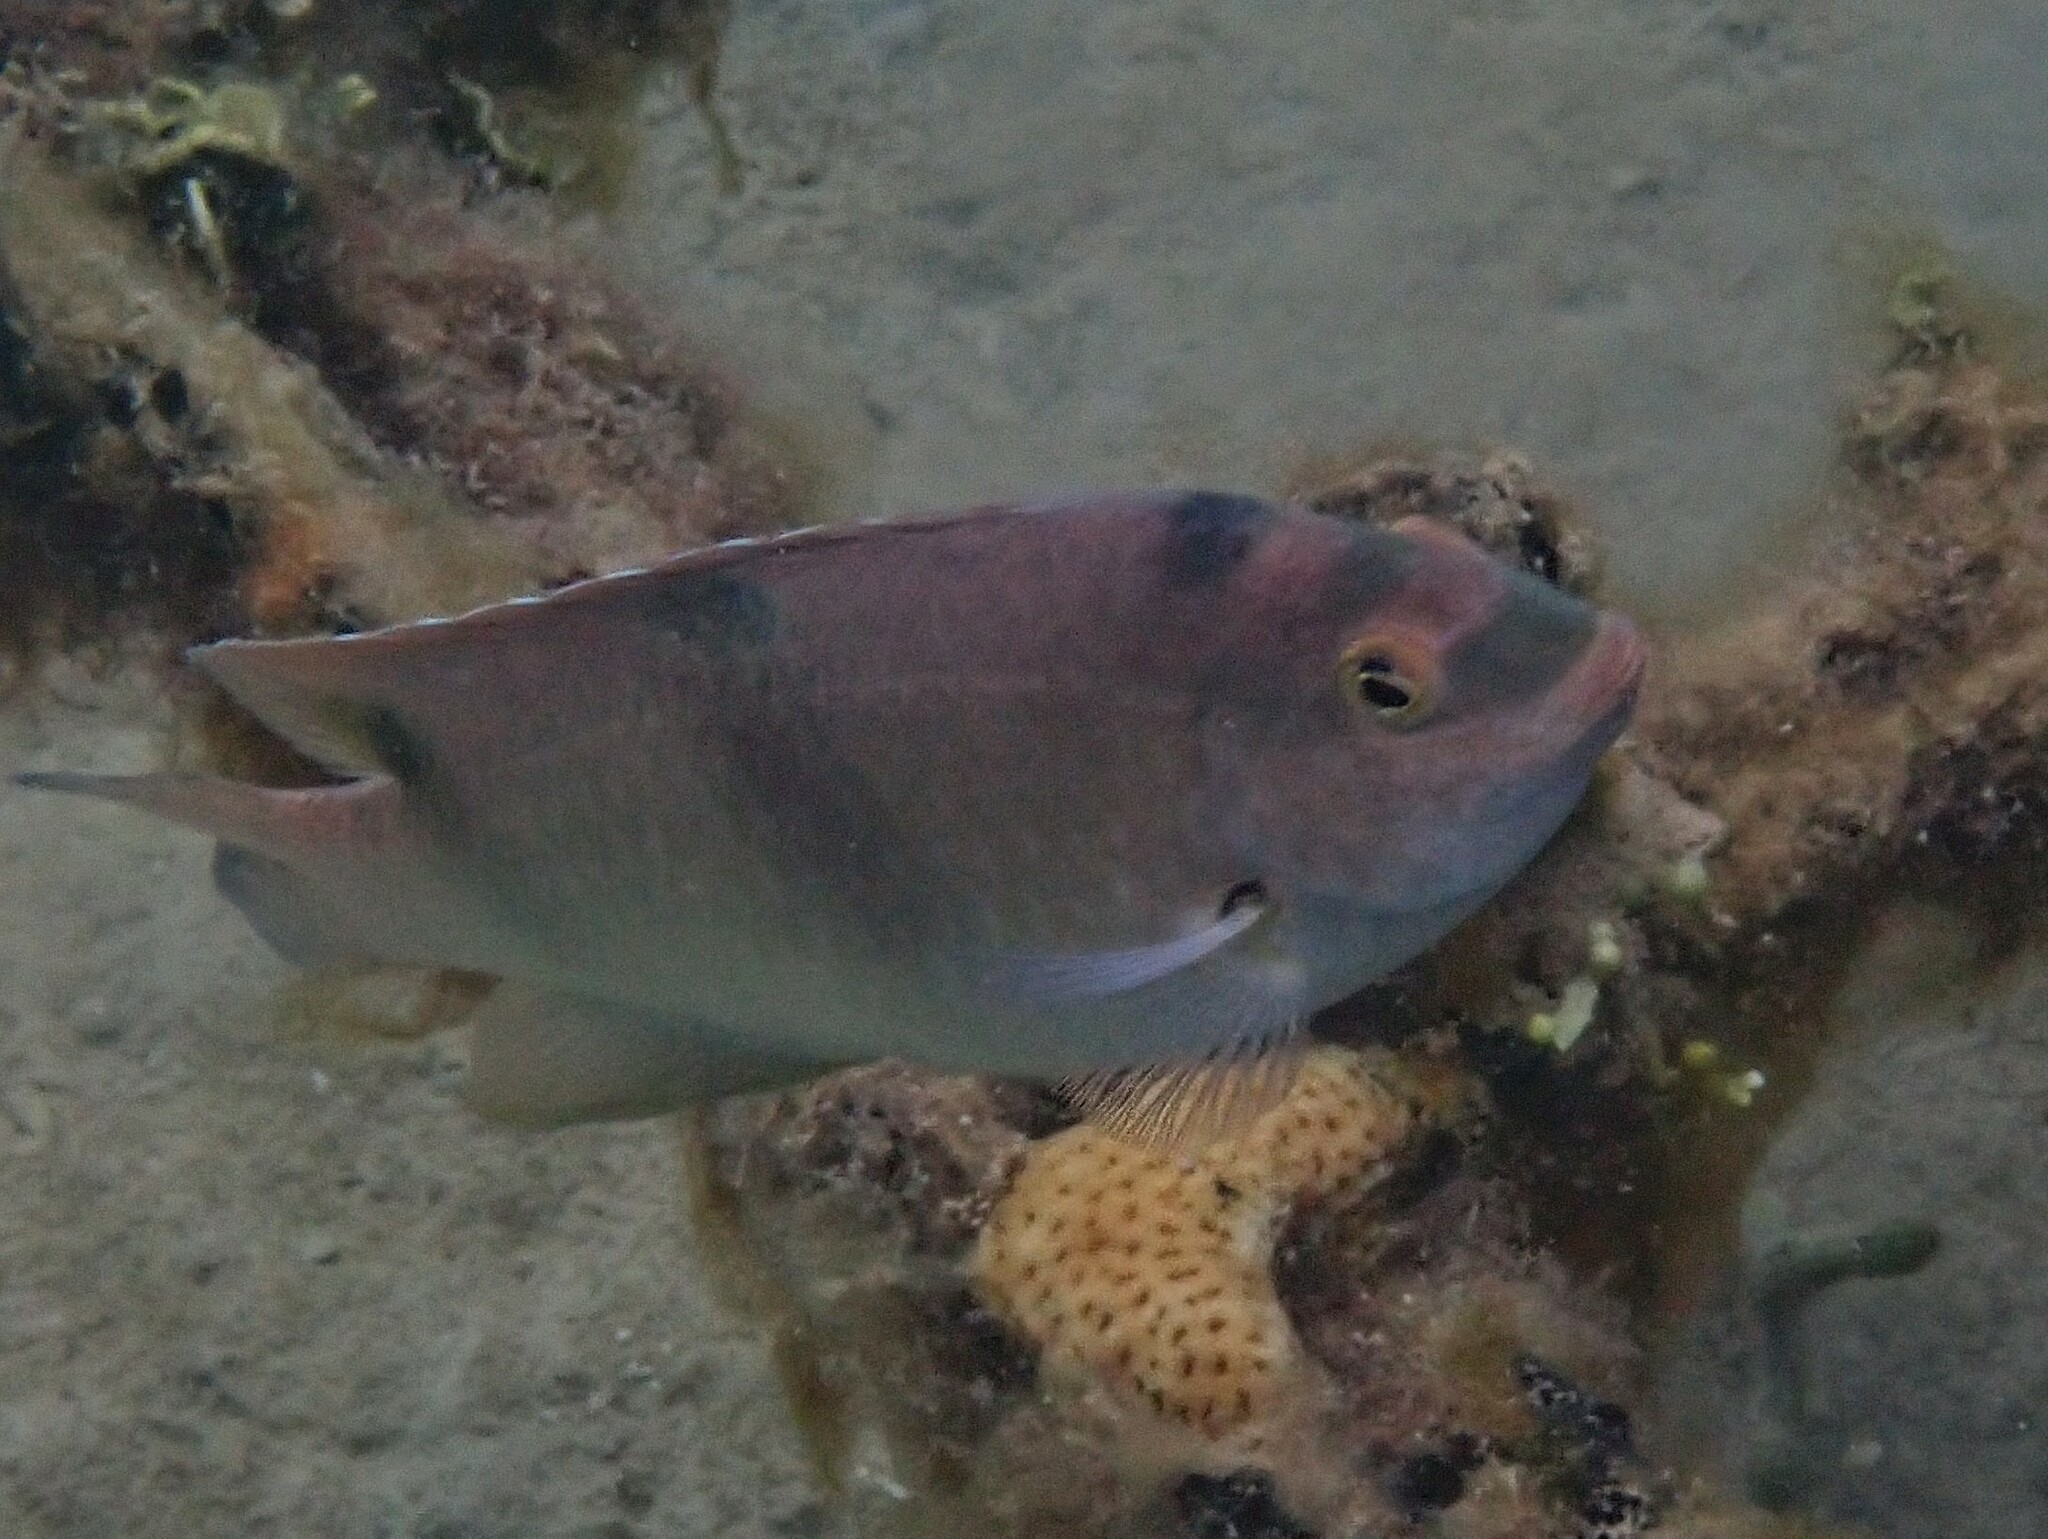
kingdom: Animalia
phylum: Chordata
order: Perciformes
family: Pomacentridae
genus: Dischistodus
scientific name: Dischistodus perspicillatus
